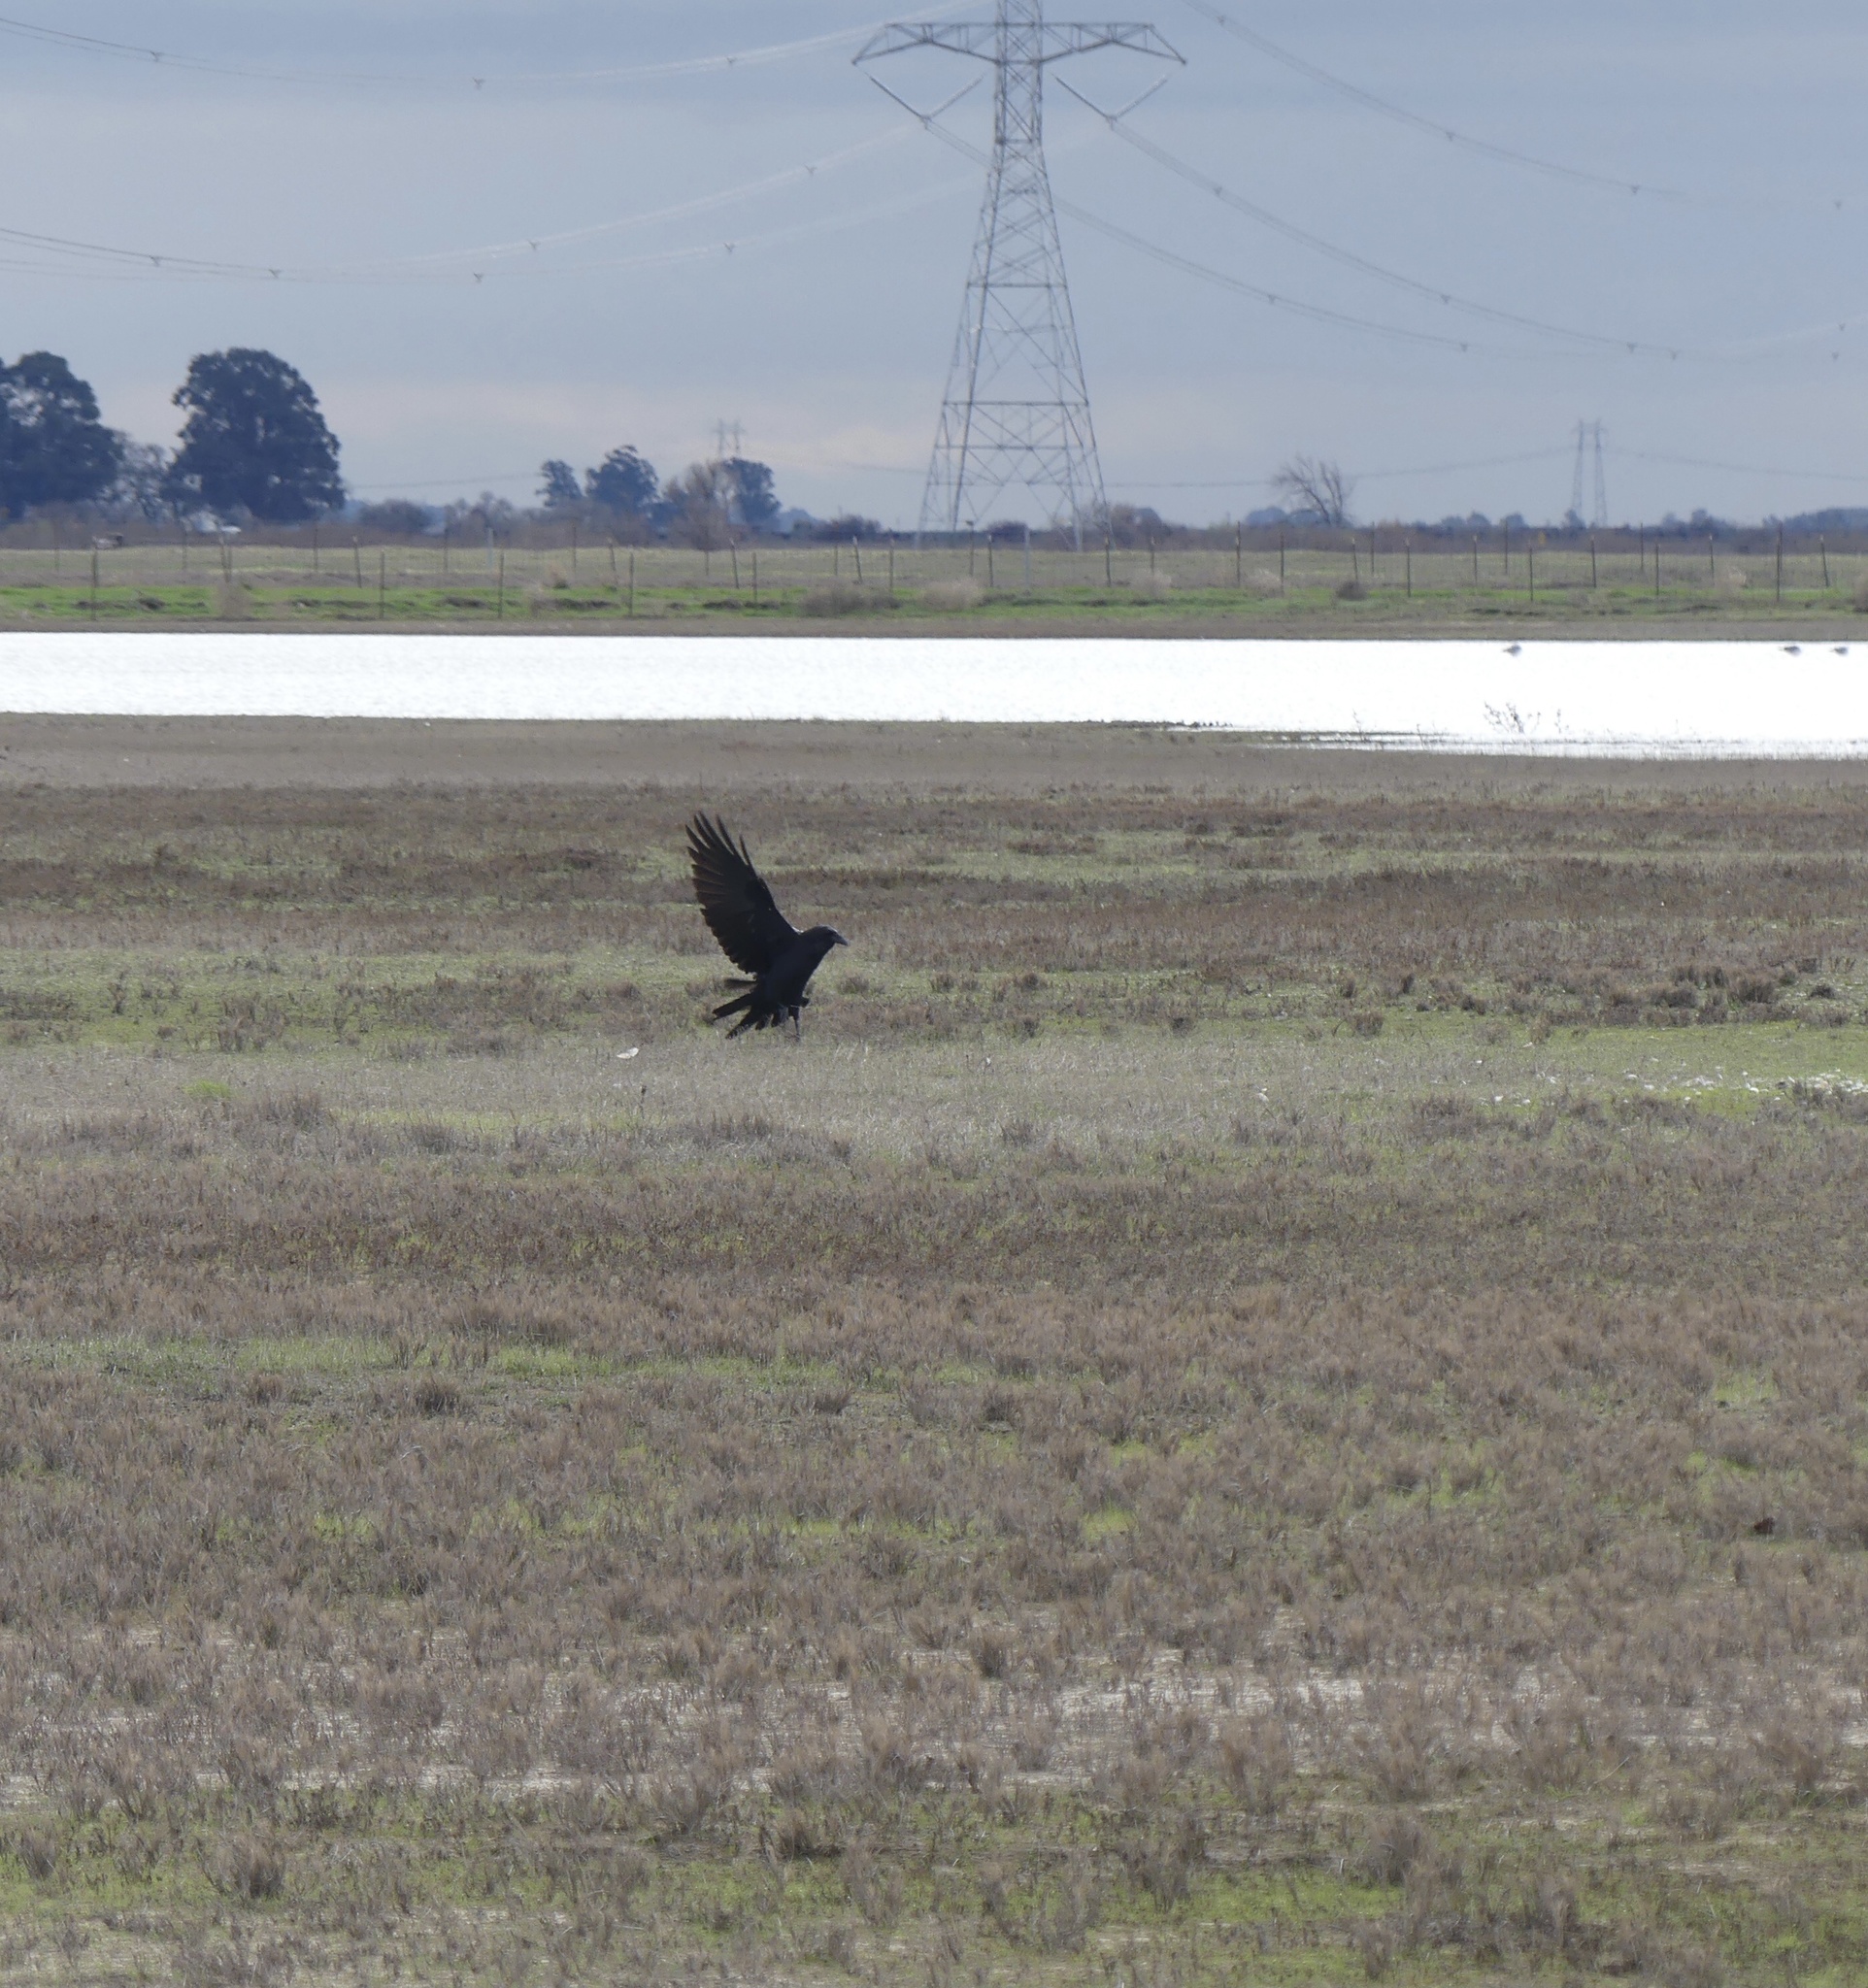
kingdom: Animalia
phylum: Chordata
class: Aves
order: Passeriformes
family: Corvidae
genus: Corvus
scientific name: Corvus corax
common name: Common raven
